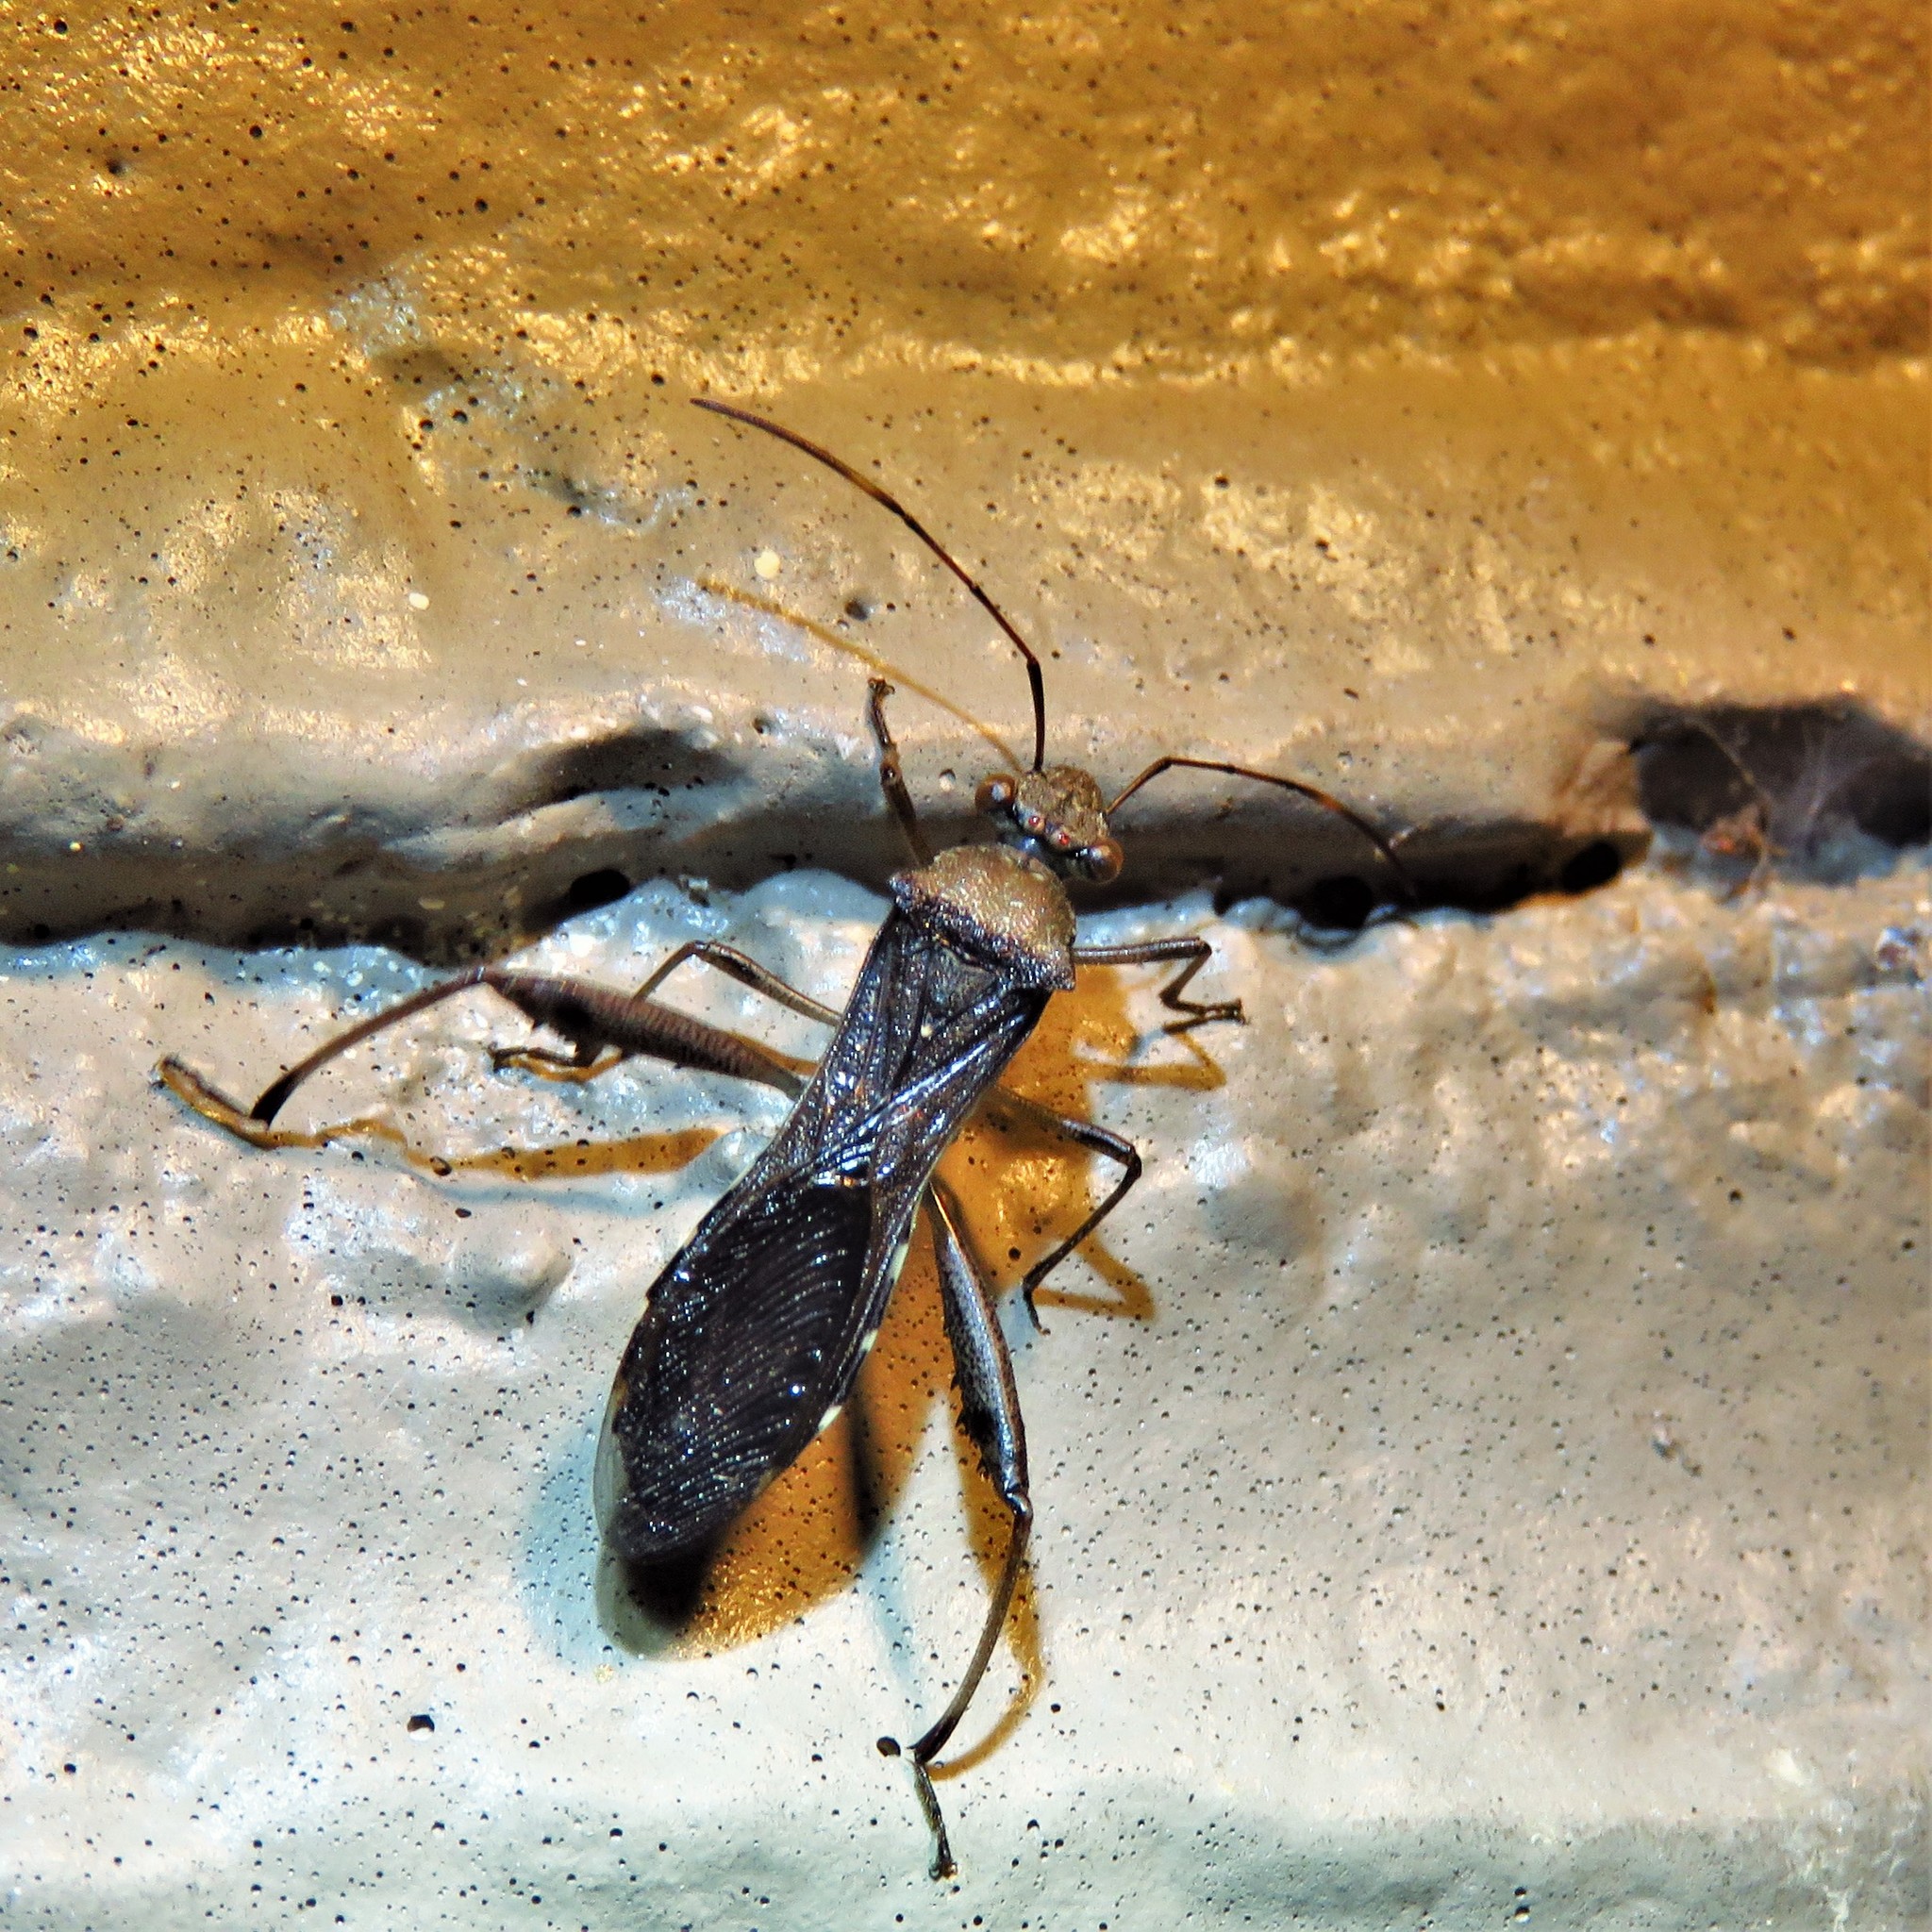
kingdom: Animalia
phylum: Arthropoda
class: Insecta
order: Hemiptera
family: Alydidae
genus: Hyalymenus
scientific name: Hyalymenus tarsatus
